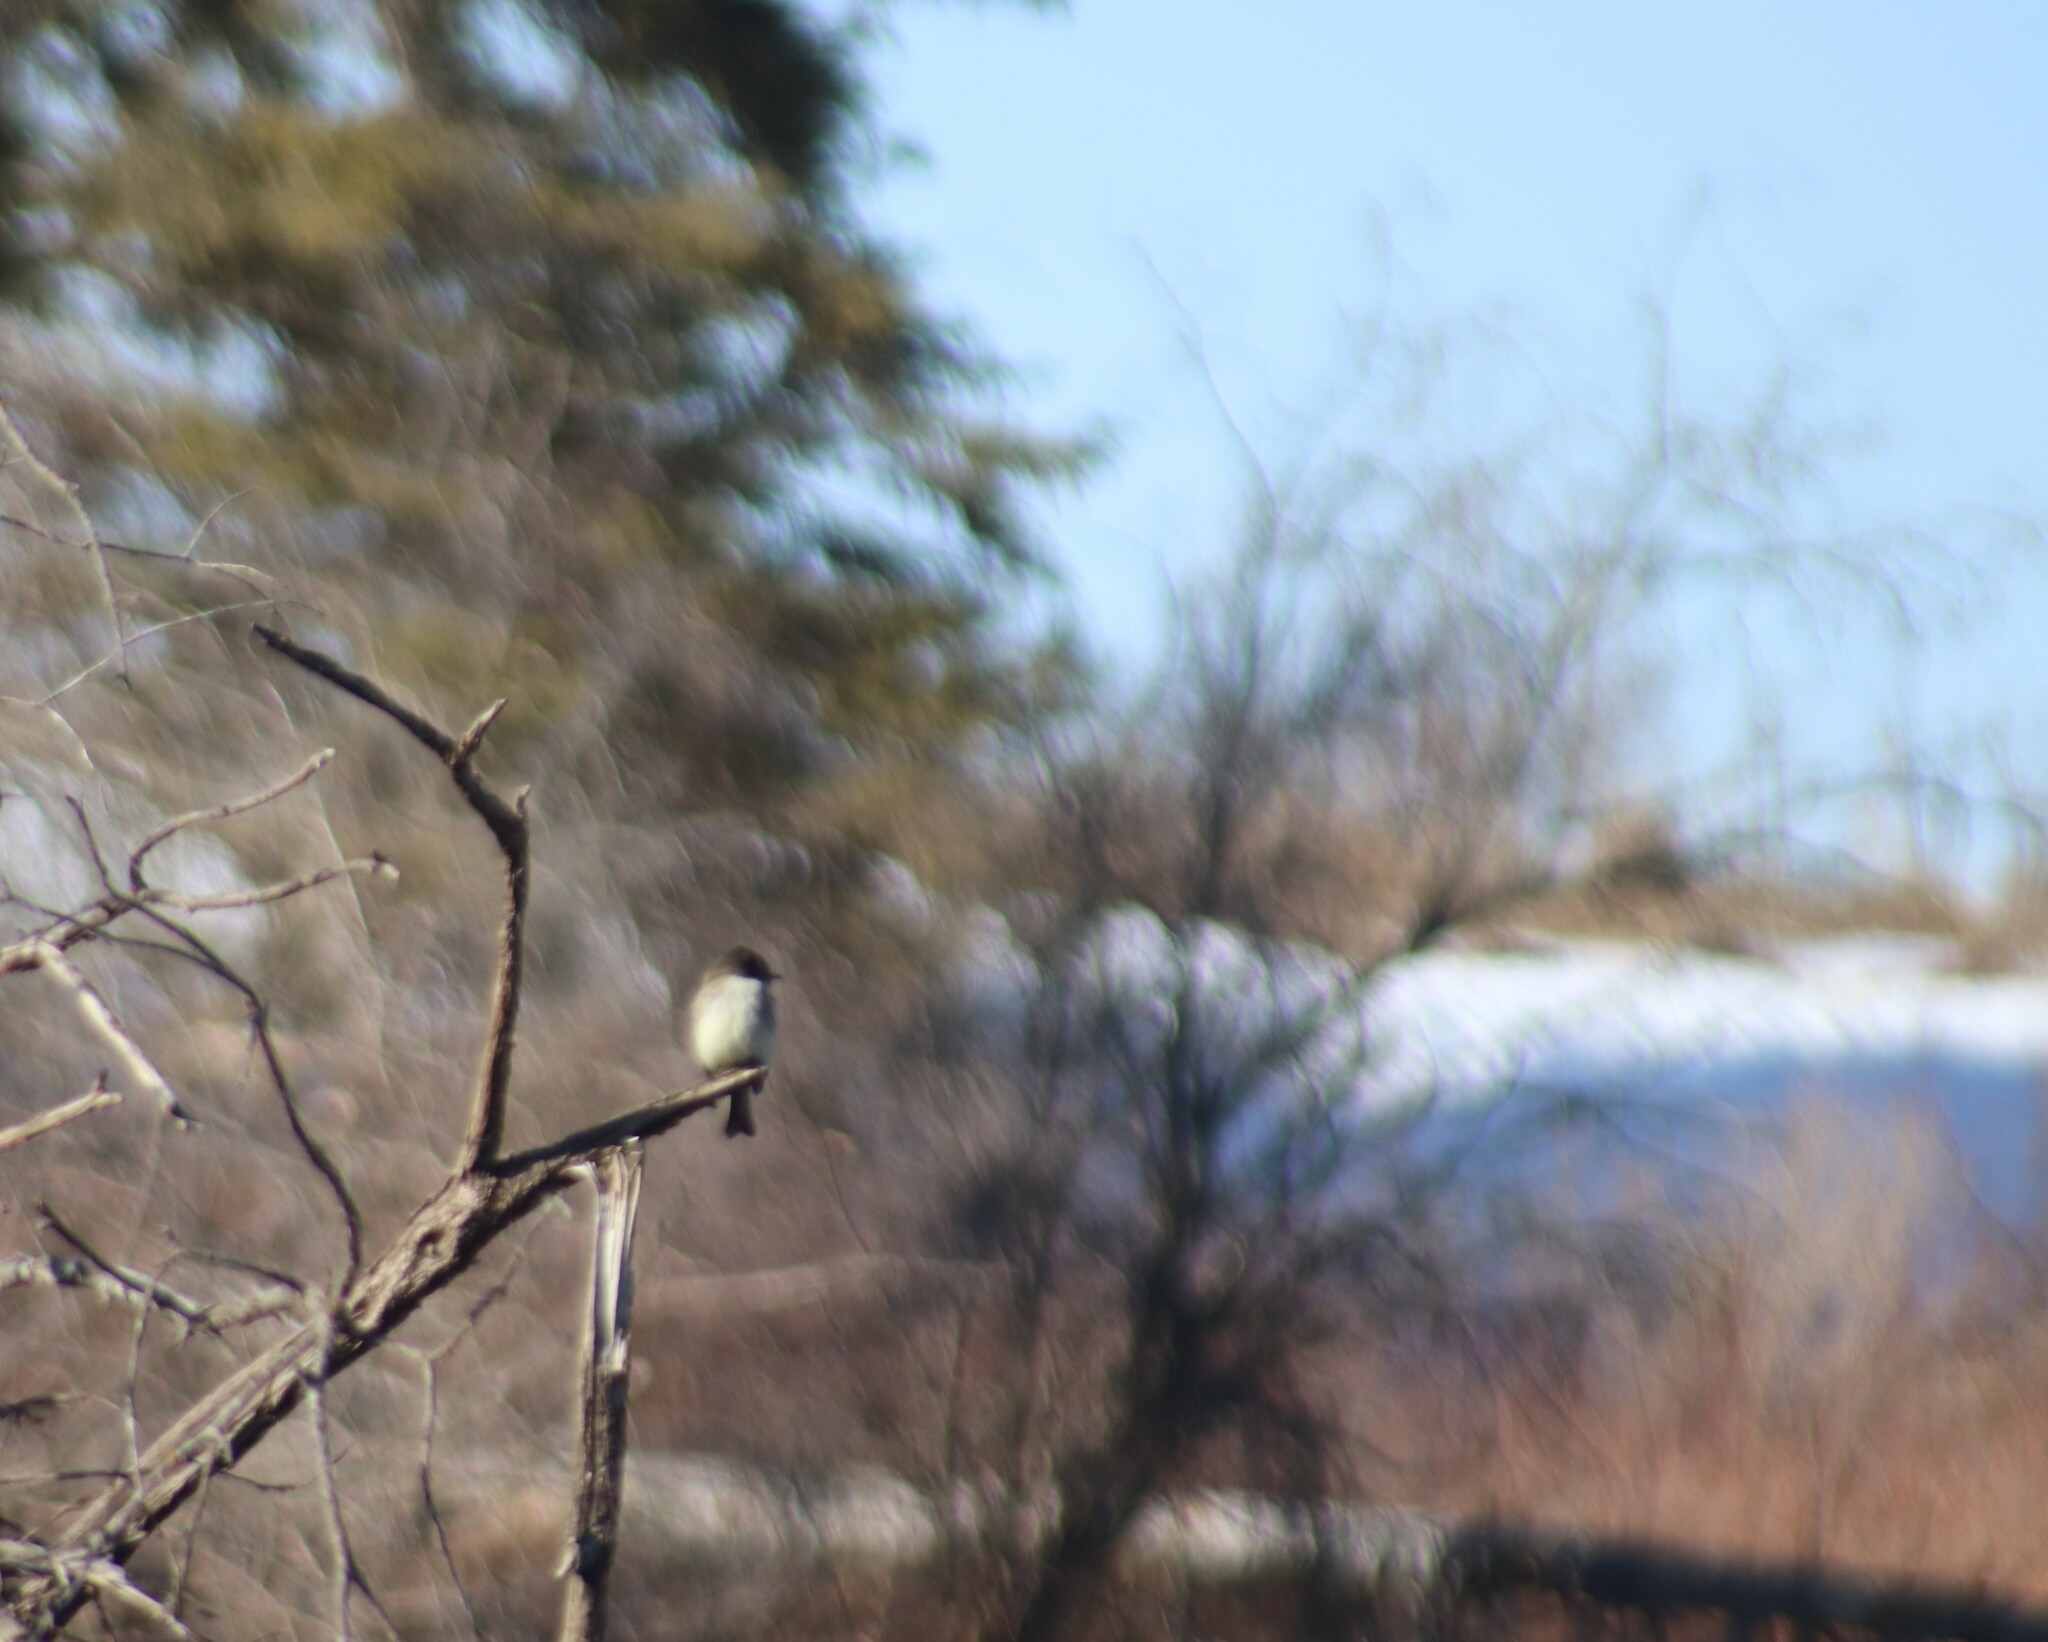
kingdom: Animalia
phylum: Chordata
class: Aves
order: Passeriformes
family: Tyrannidae
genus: Sayornis
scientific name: Sayornis phoebe
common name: Eastern phoebe
